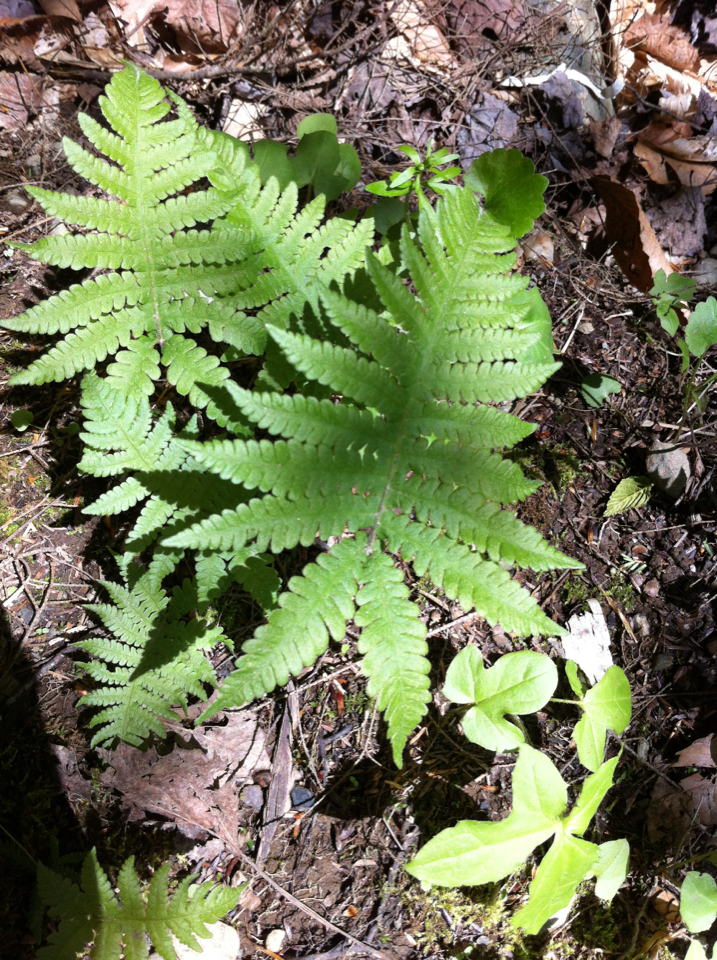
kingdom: Plantae
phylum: Tracheophyta
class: Polypodiopsida
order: Polypodiales
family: Thelypteridaceae
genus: Phegopteris
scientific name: Phegopteris connectilis
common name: Beech fern
